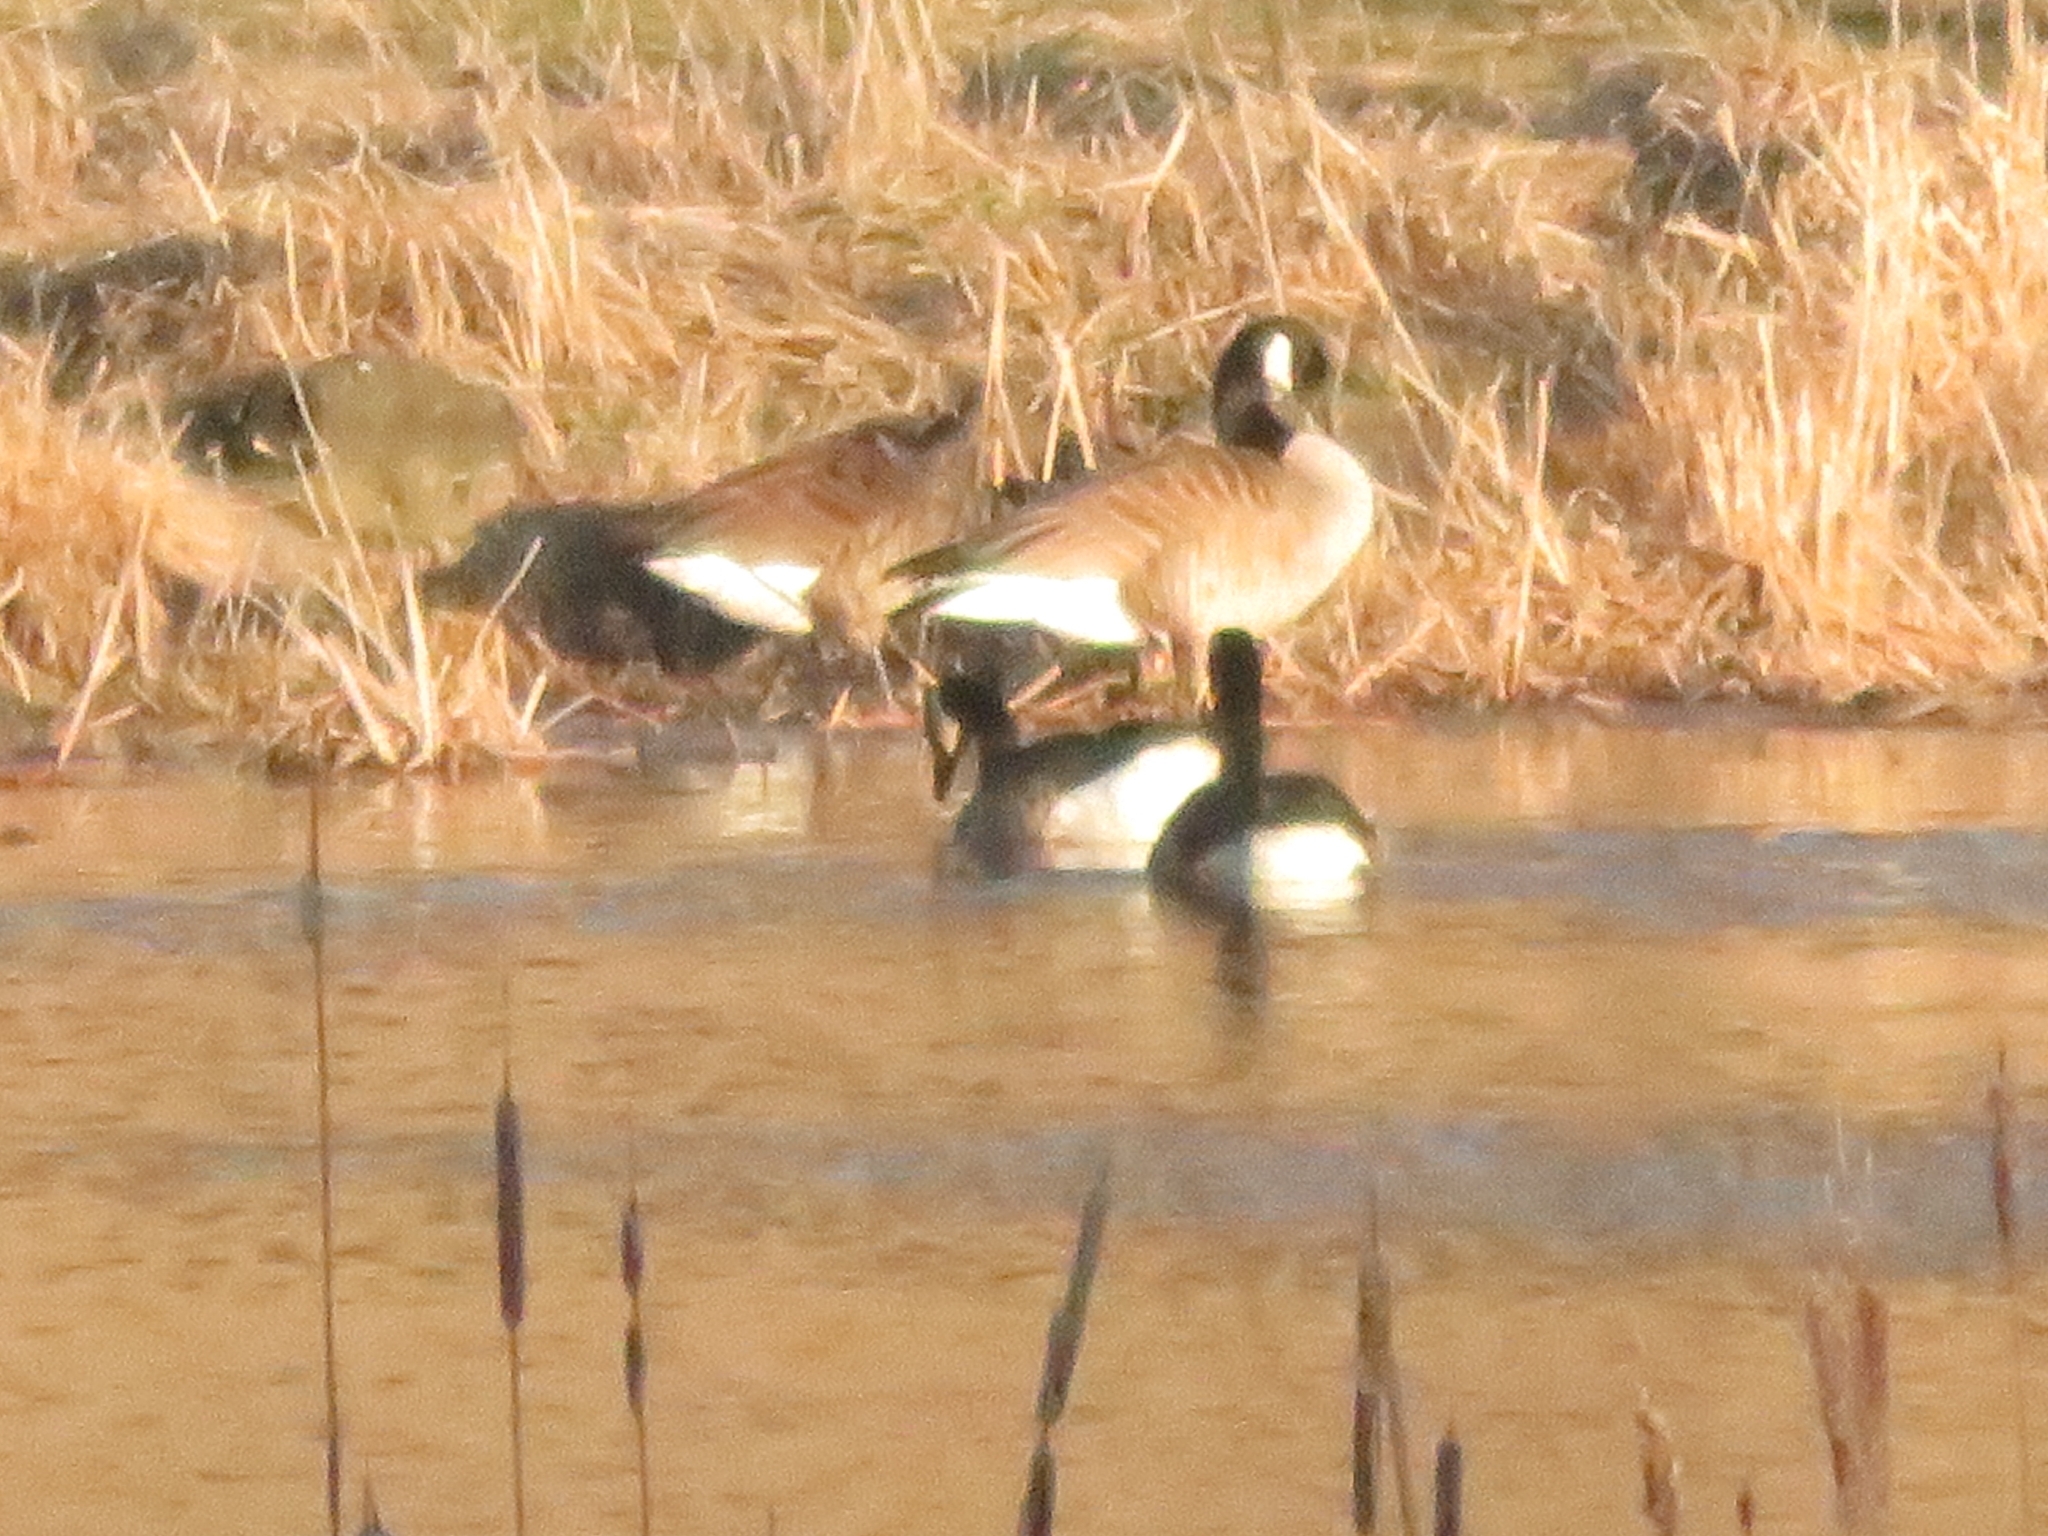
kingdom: Animalia
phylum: Chordata
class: Aves
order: Anseriformes
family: Anatidae
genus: Branta
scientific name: Branta canadensis
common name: Canada goose
